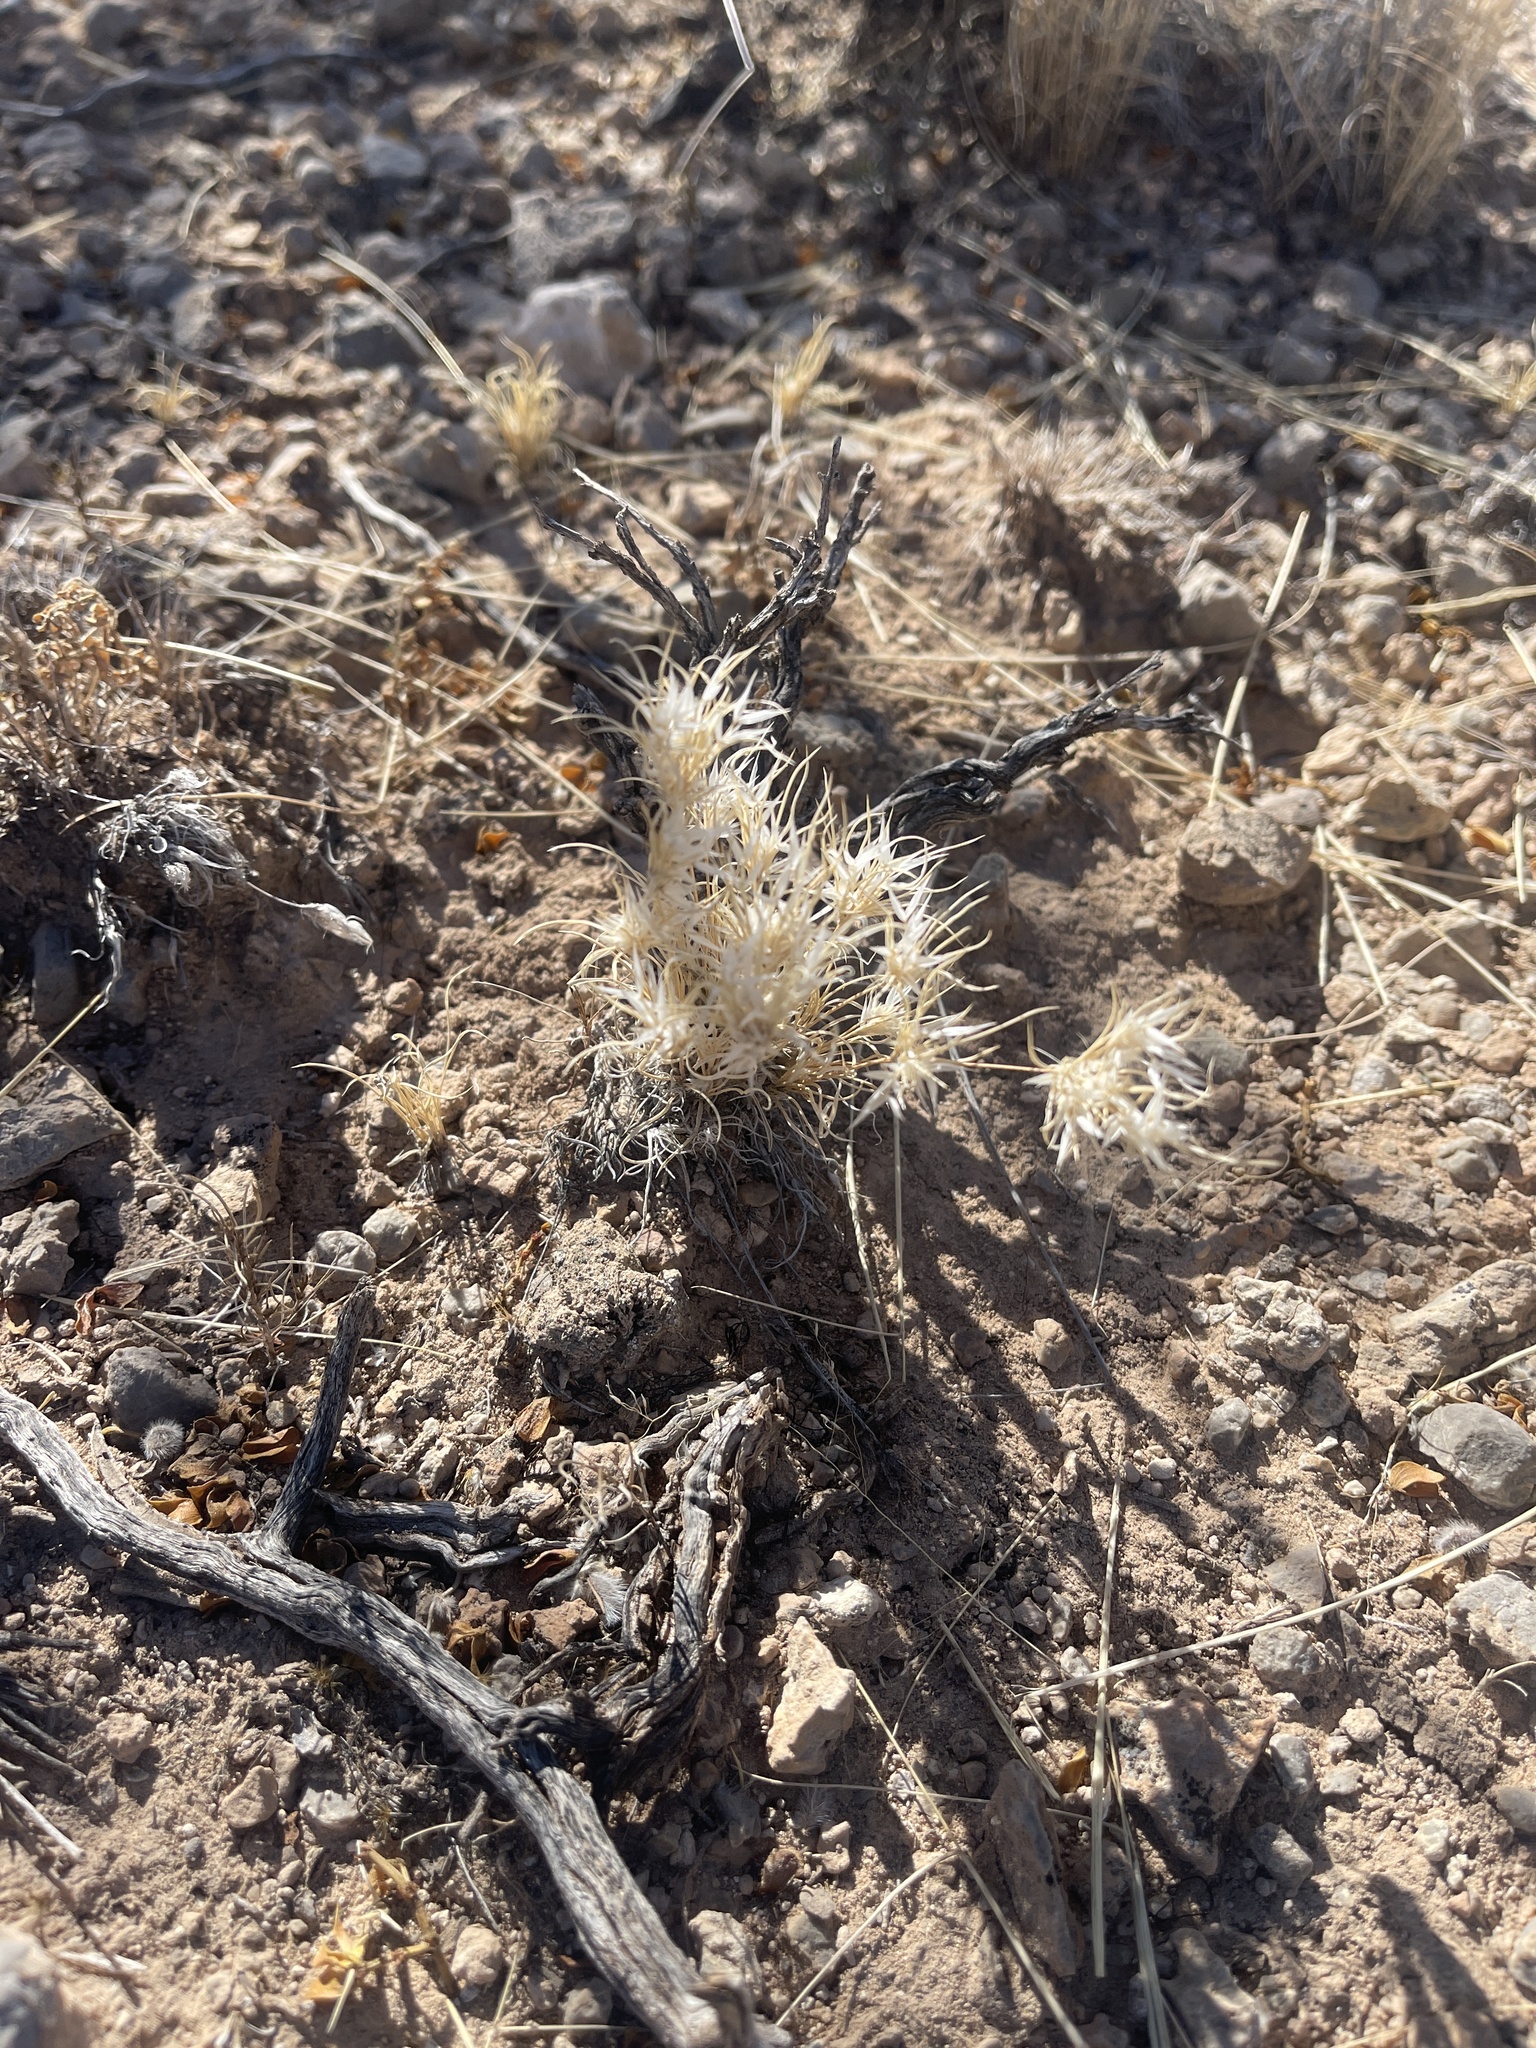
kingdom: Plantae
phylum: Tracheophyta
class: Liliopsida
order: Poales
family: Poaceae
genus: Dasyochloa
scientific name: Dasyochloa pulchella
